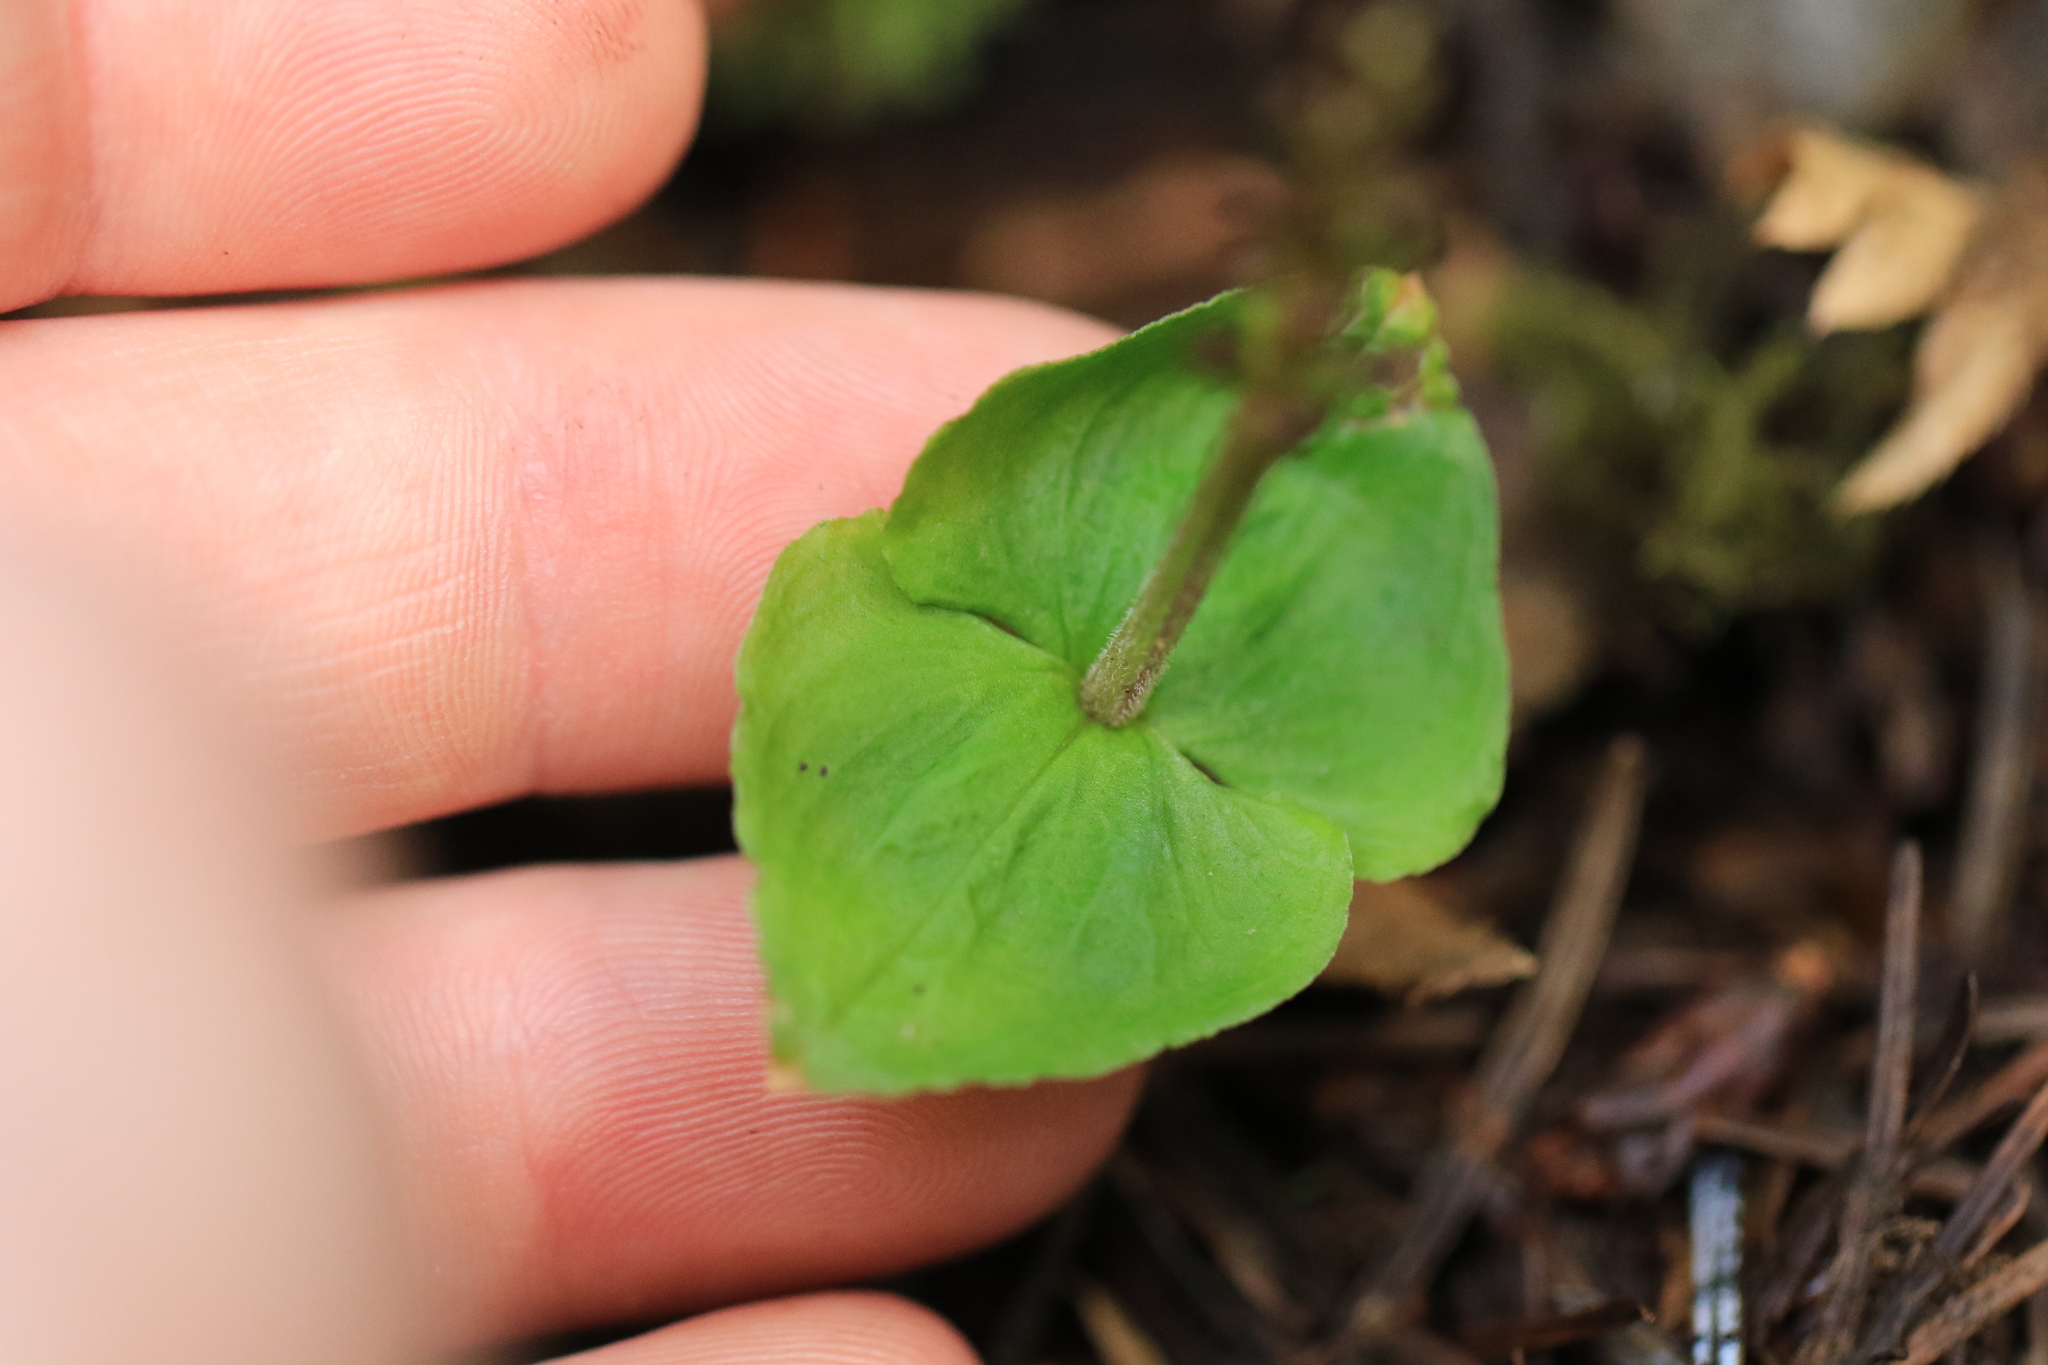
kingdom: Plantae
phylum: Tracheophyta
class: Liliopsida
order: Asparagales
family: Orchidaceae
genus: Neottia
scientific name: Neottia cordata
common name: Lesser twayblade
